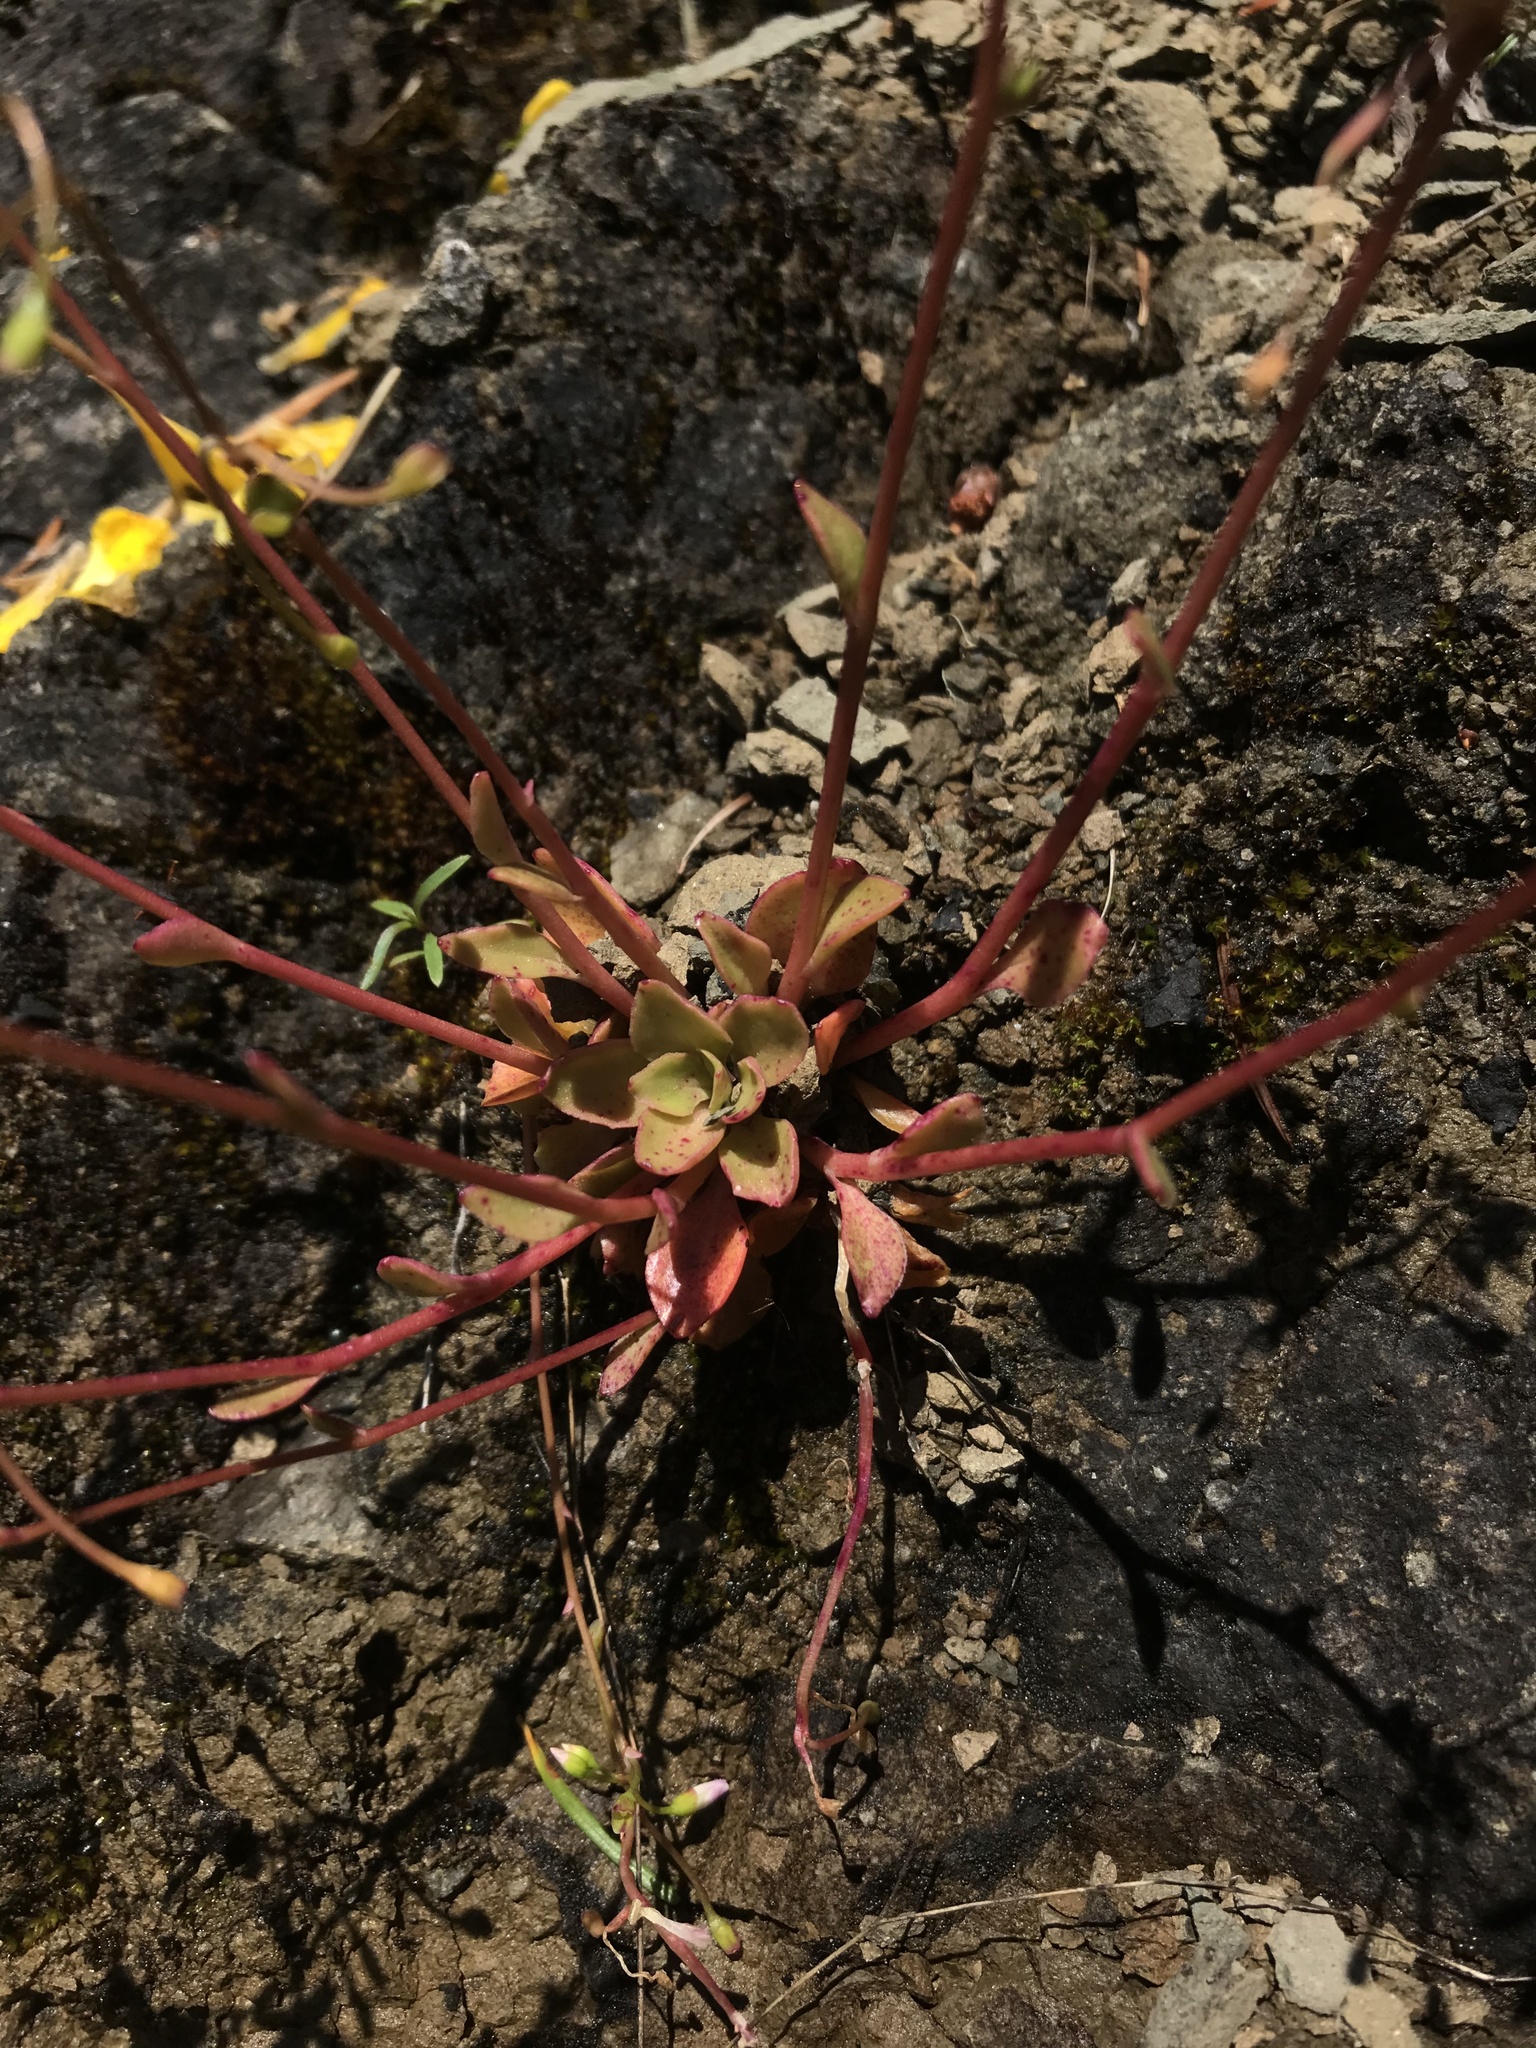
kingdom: Plantae
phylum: Tracheophyta
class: Magnoliopsida
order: Caryophyllales
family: Montiaceae
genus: Montia
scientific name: Montia parvifolia
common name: Small-leaved blinks
